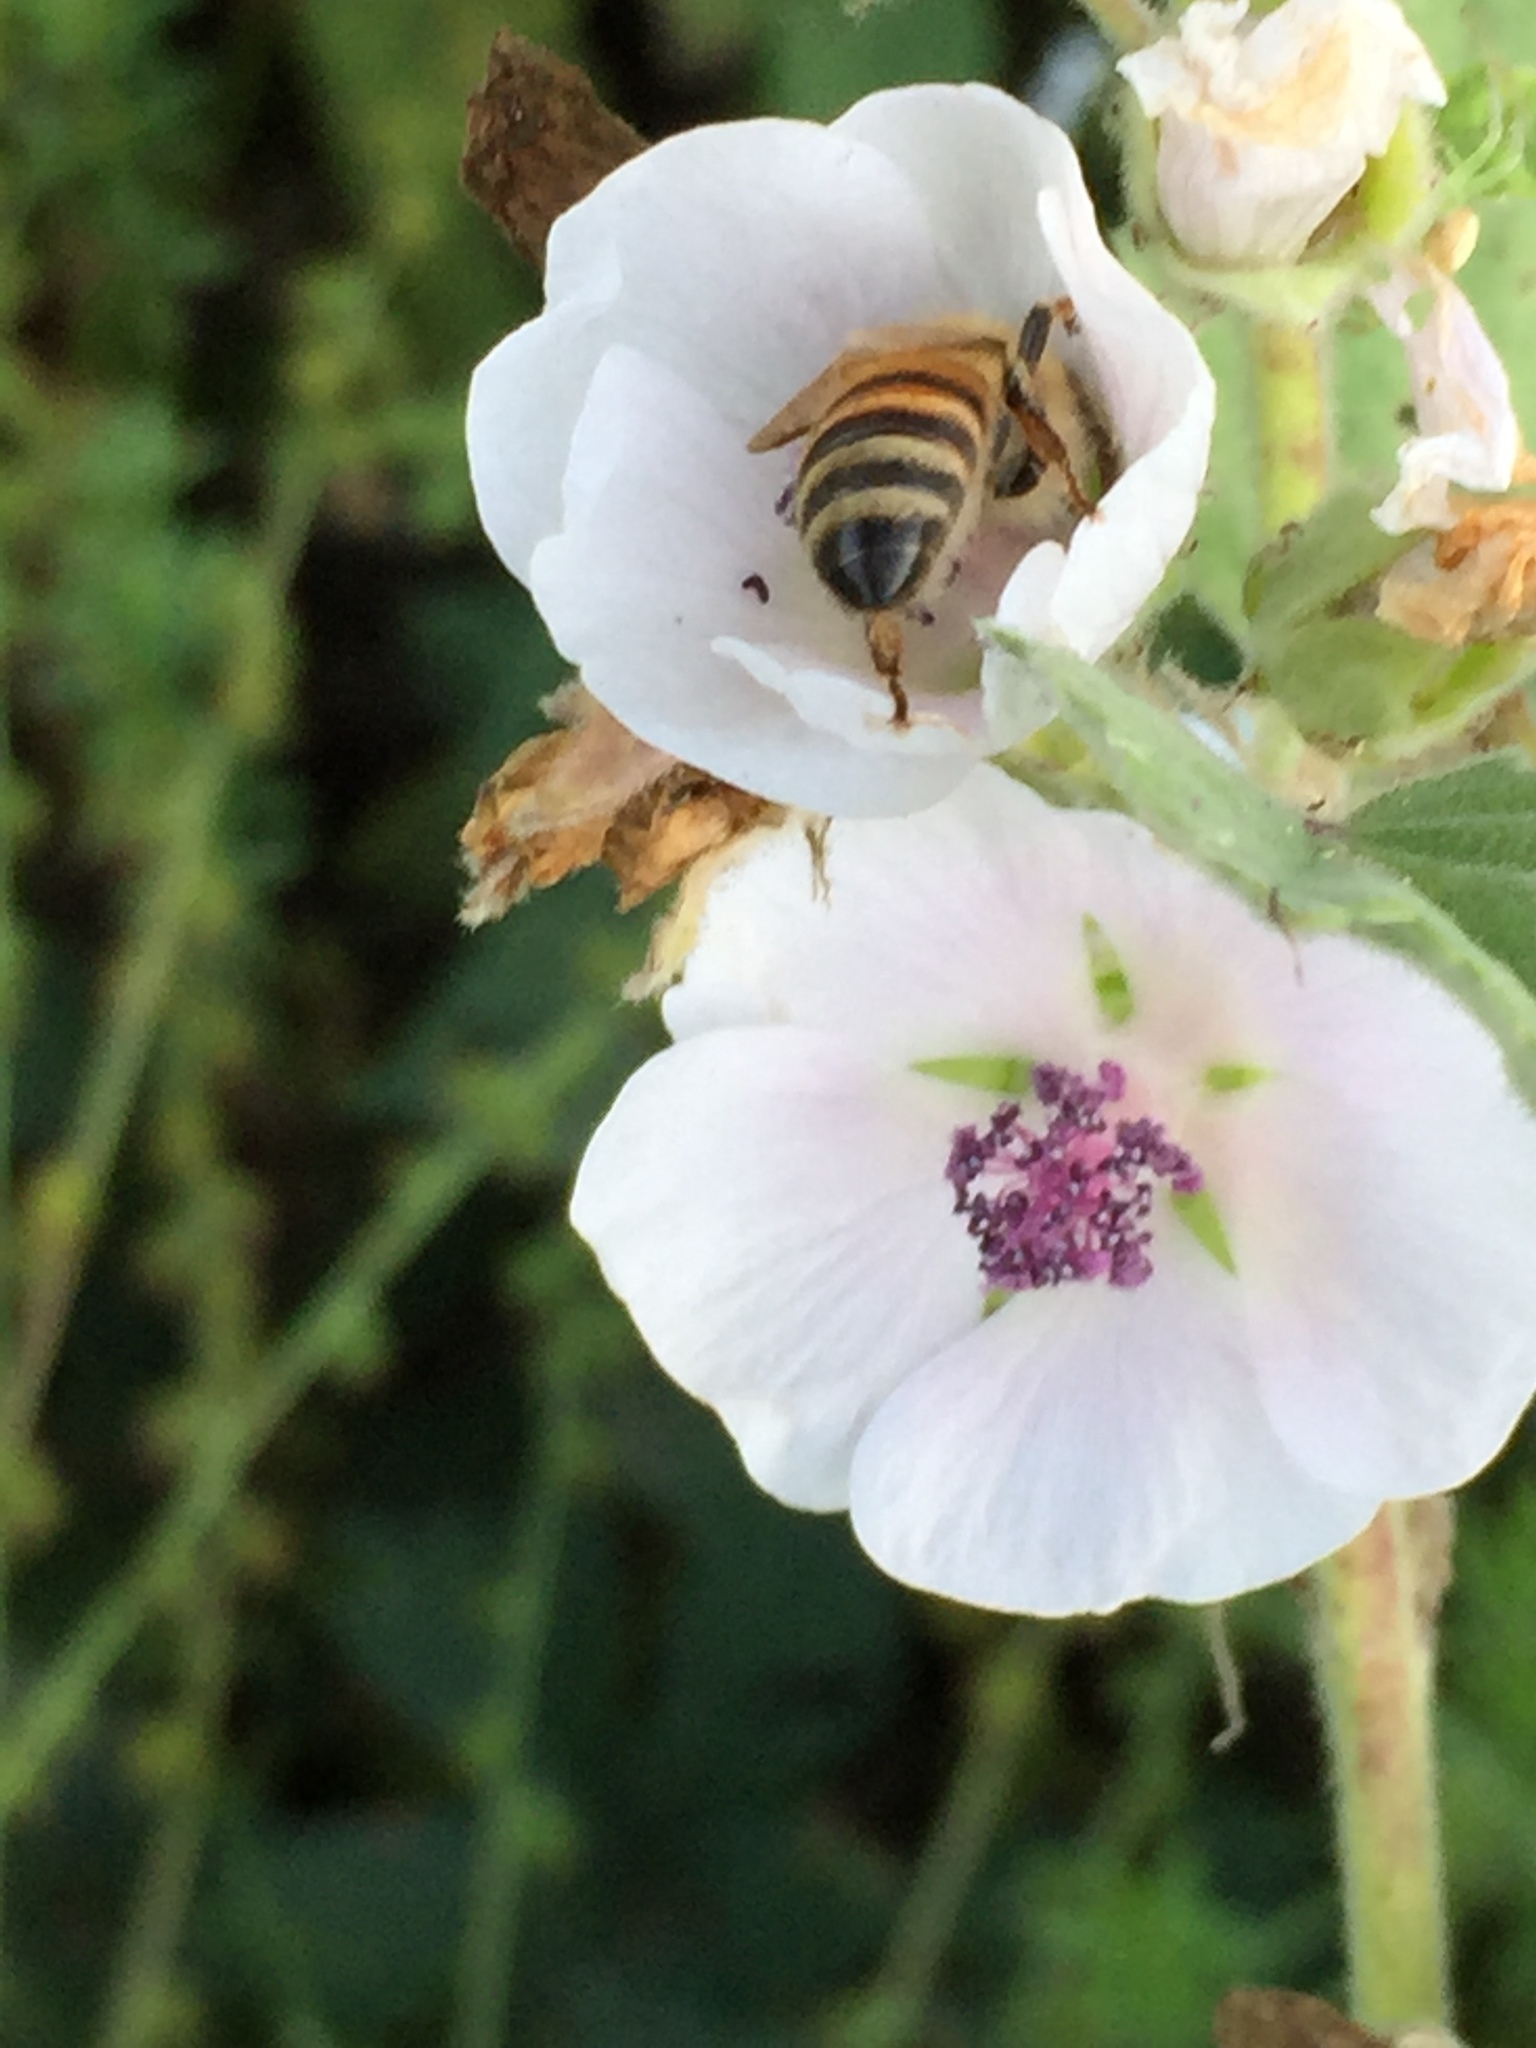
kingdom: Plantae
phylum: Tracheophyta
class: Magnoliopsida
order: Malvales
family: Malvaceae
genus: Althaea
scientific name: Althaea officinalis
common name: Marsh-mallow
